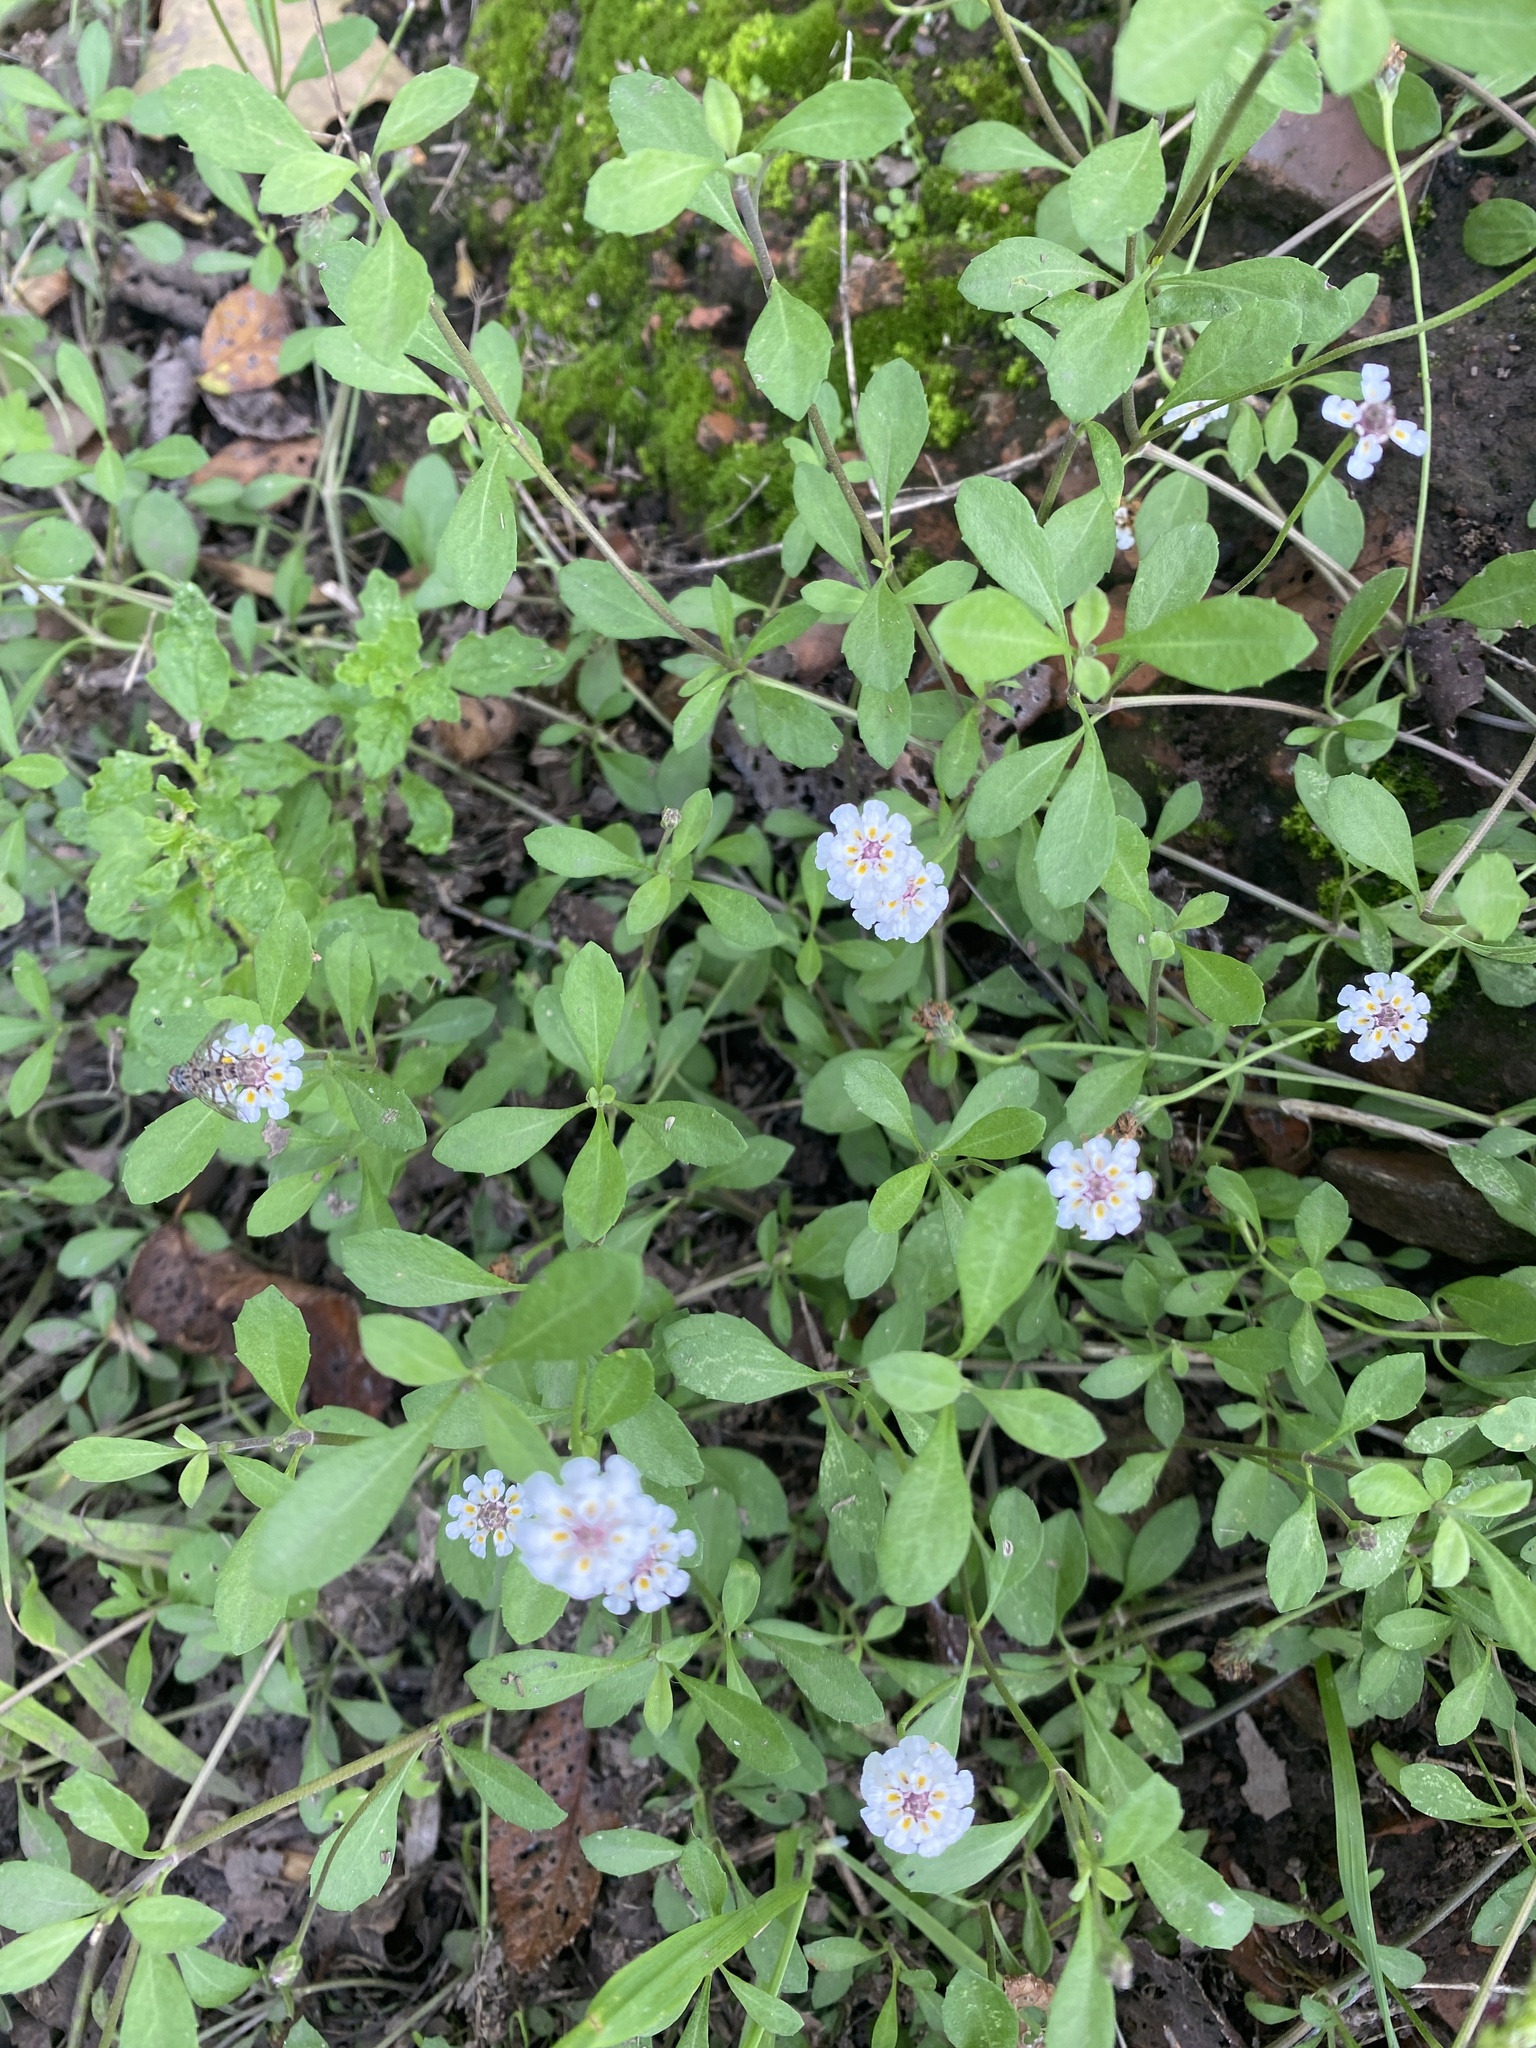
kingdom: Plantae
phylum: Tracheophyta
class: Magnoliopsida
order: Lamiales
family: Verbenaceae
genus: Phyla
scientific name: Phyla nodiflora
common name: Frogfruit
